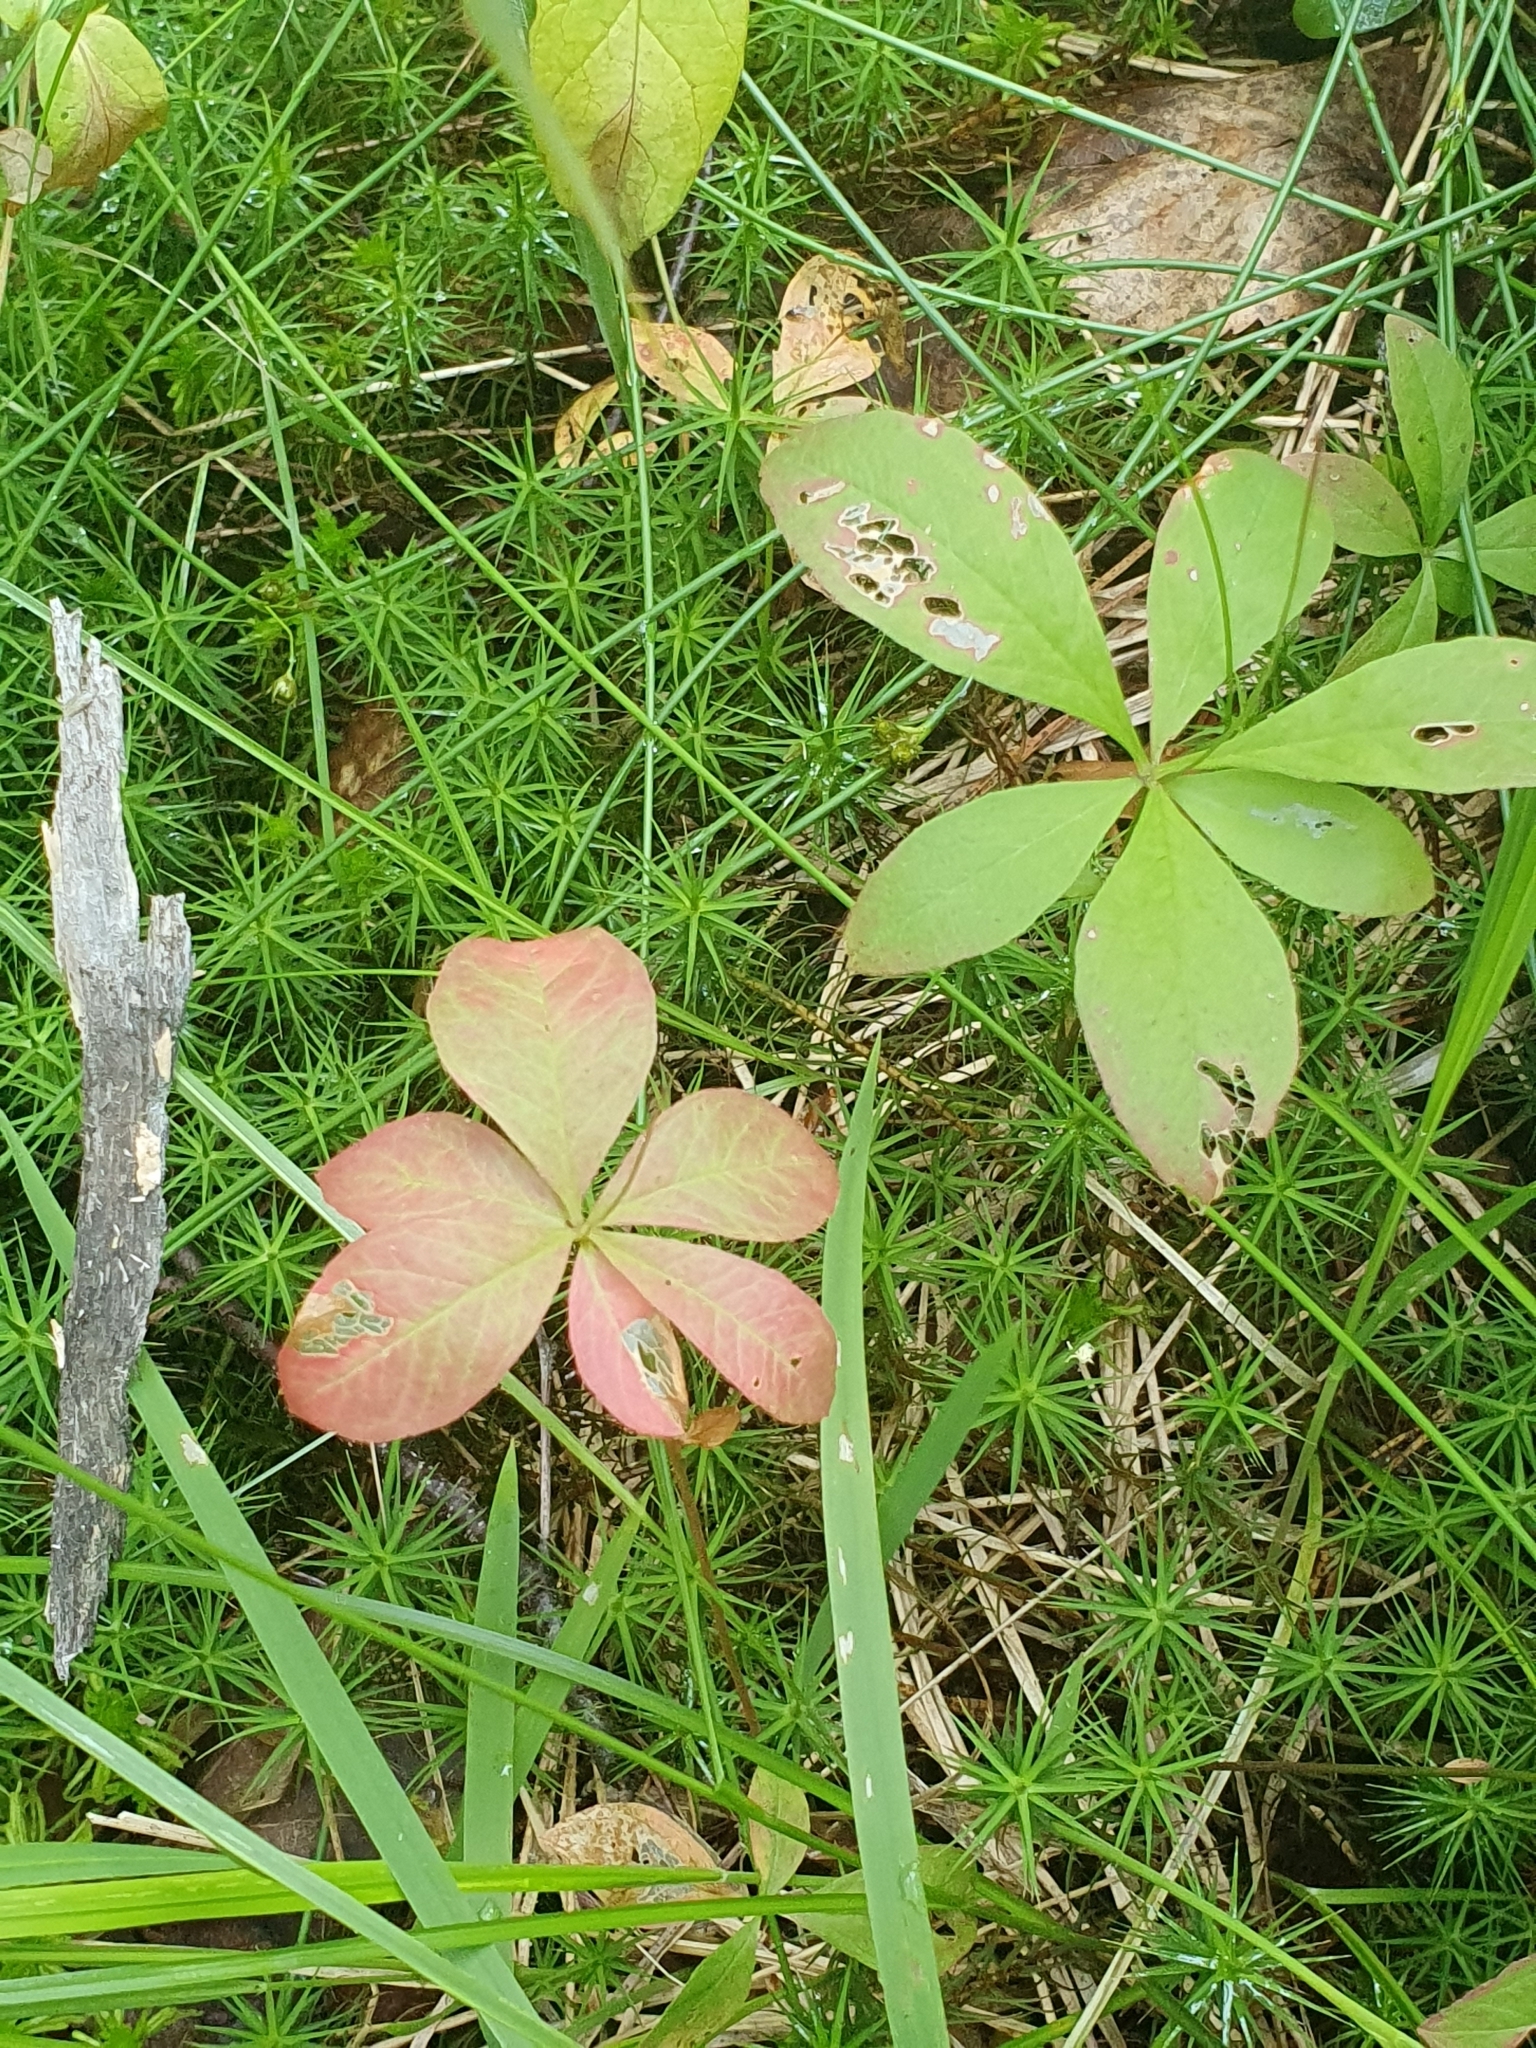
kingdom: Plantae
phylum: Tracheophyta
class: Magnoliopsida
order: Ericales
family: Primulaceae
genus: Lysimachia
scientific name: Lysimachia europaea
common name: Arctic starflower
